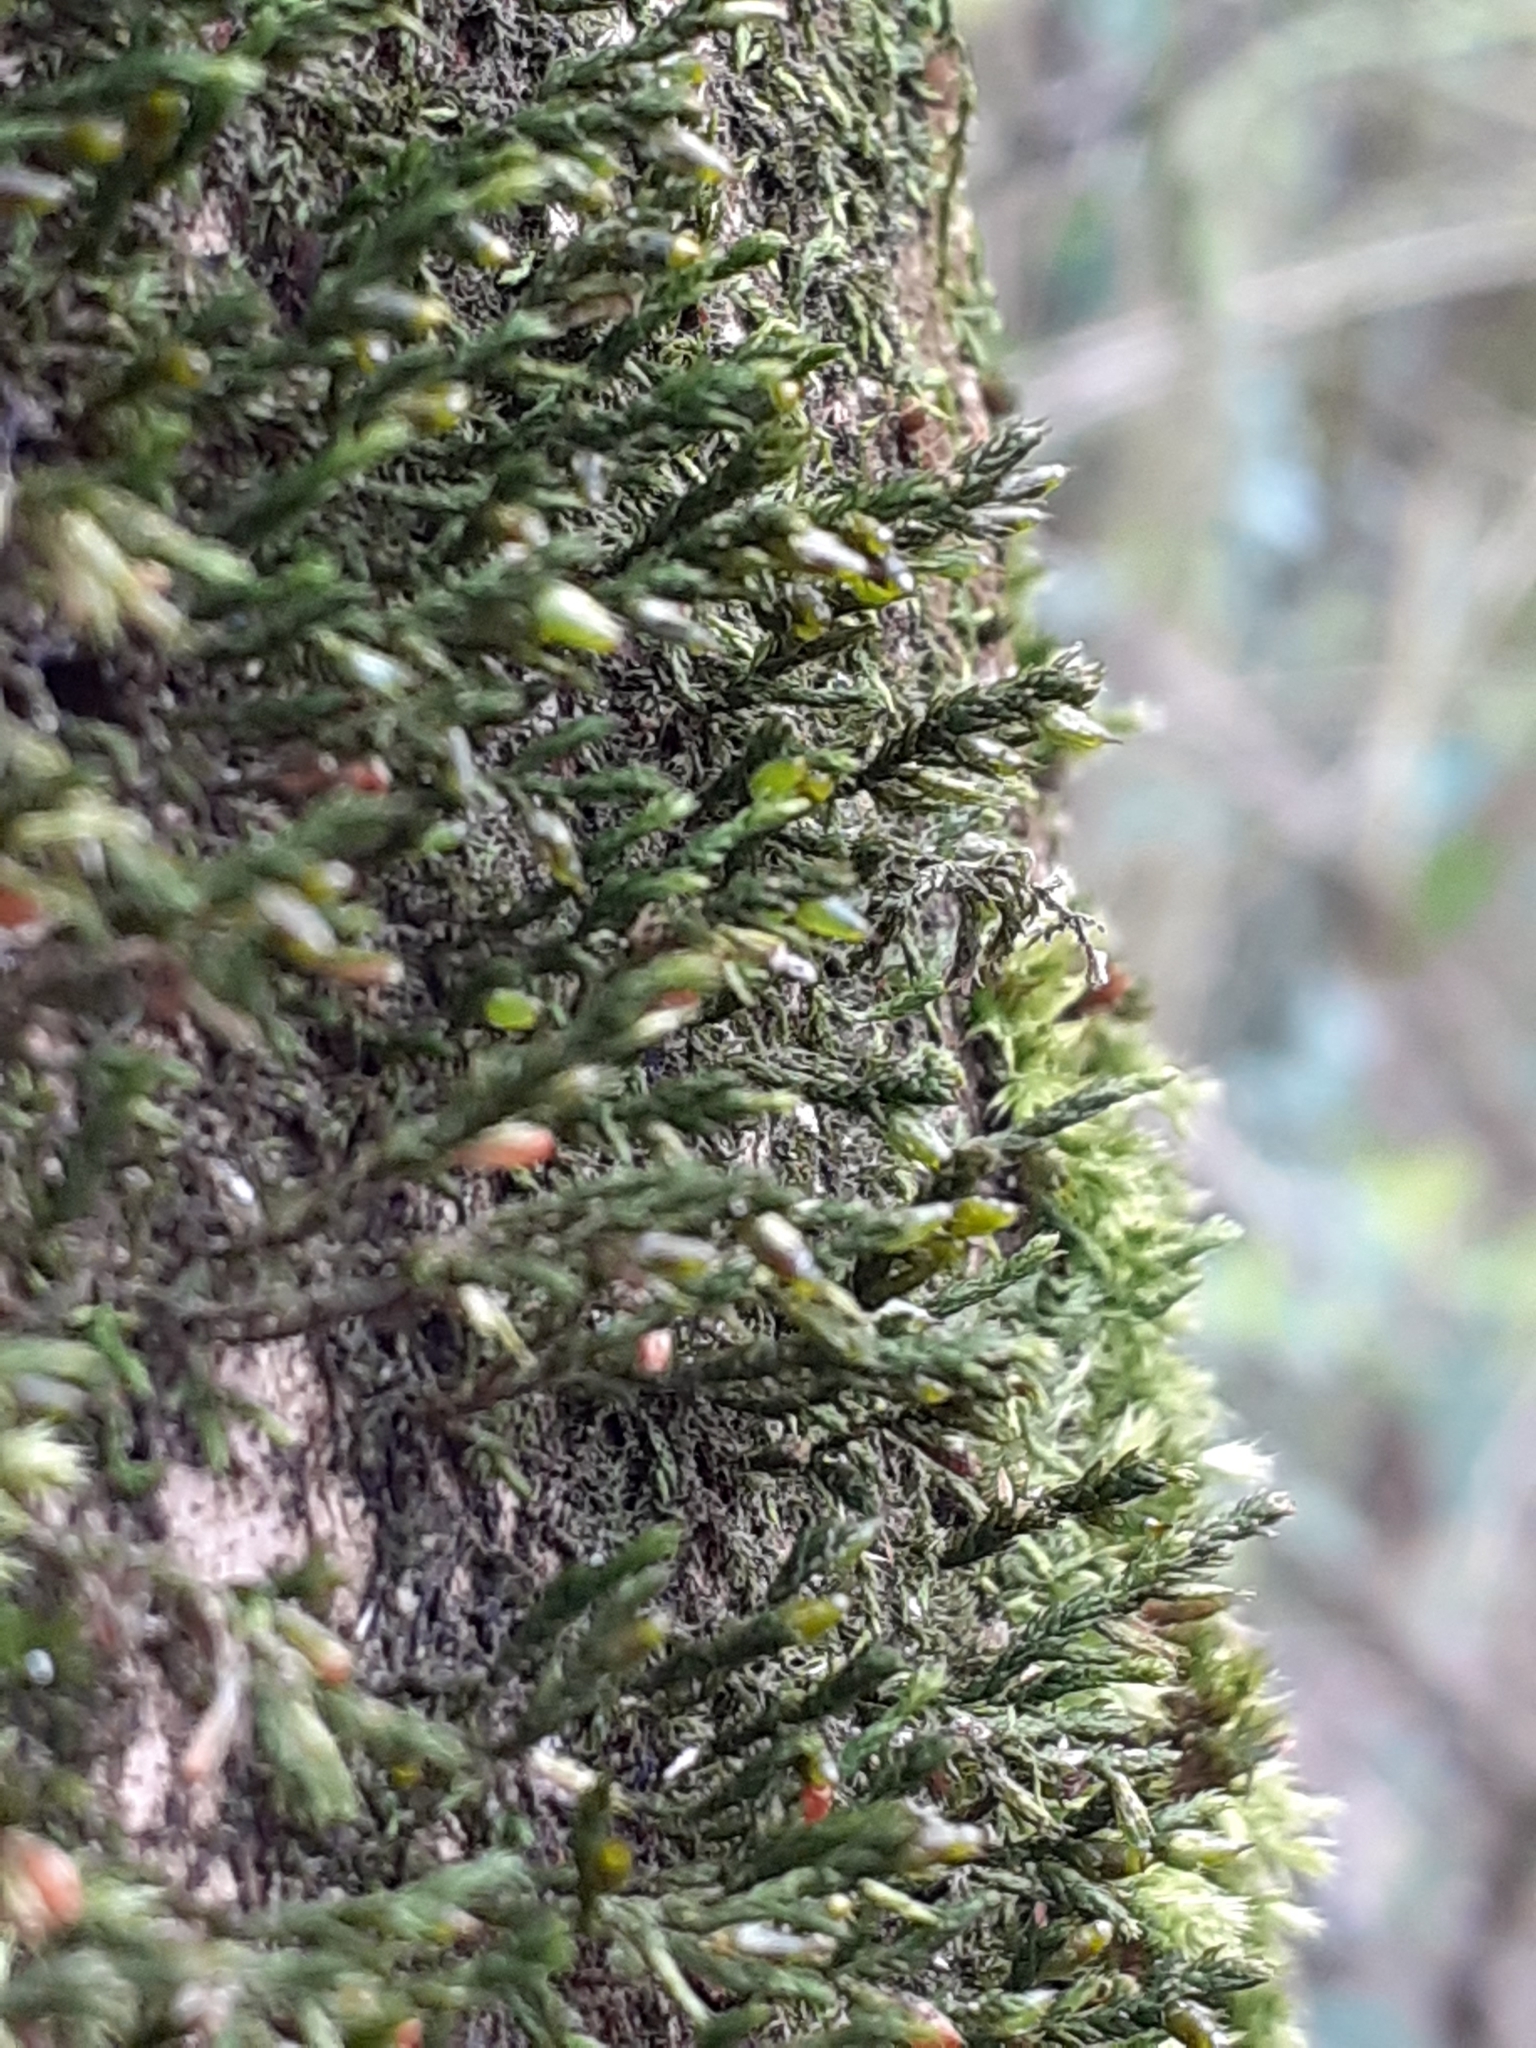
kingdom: Plantae
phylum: Bryophyta
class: Bryopsida
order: Hypnales
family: Cryphaeaceae
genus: Cryphaea
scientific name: Cryphaea heteromalla
